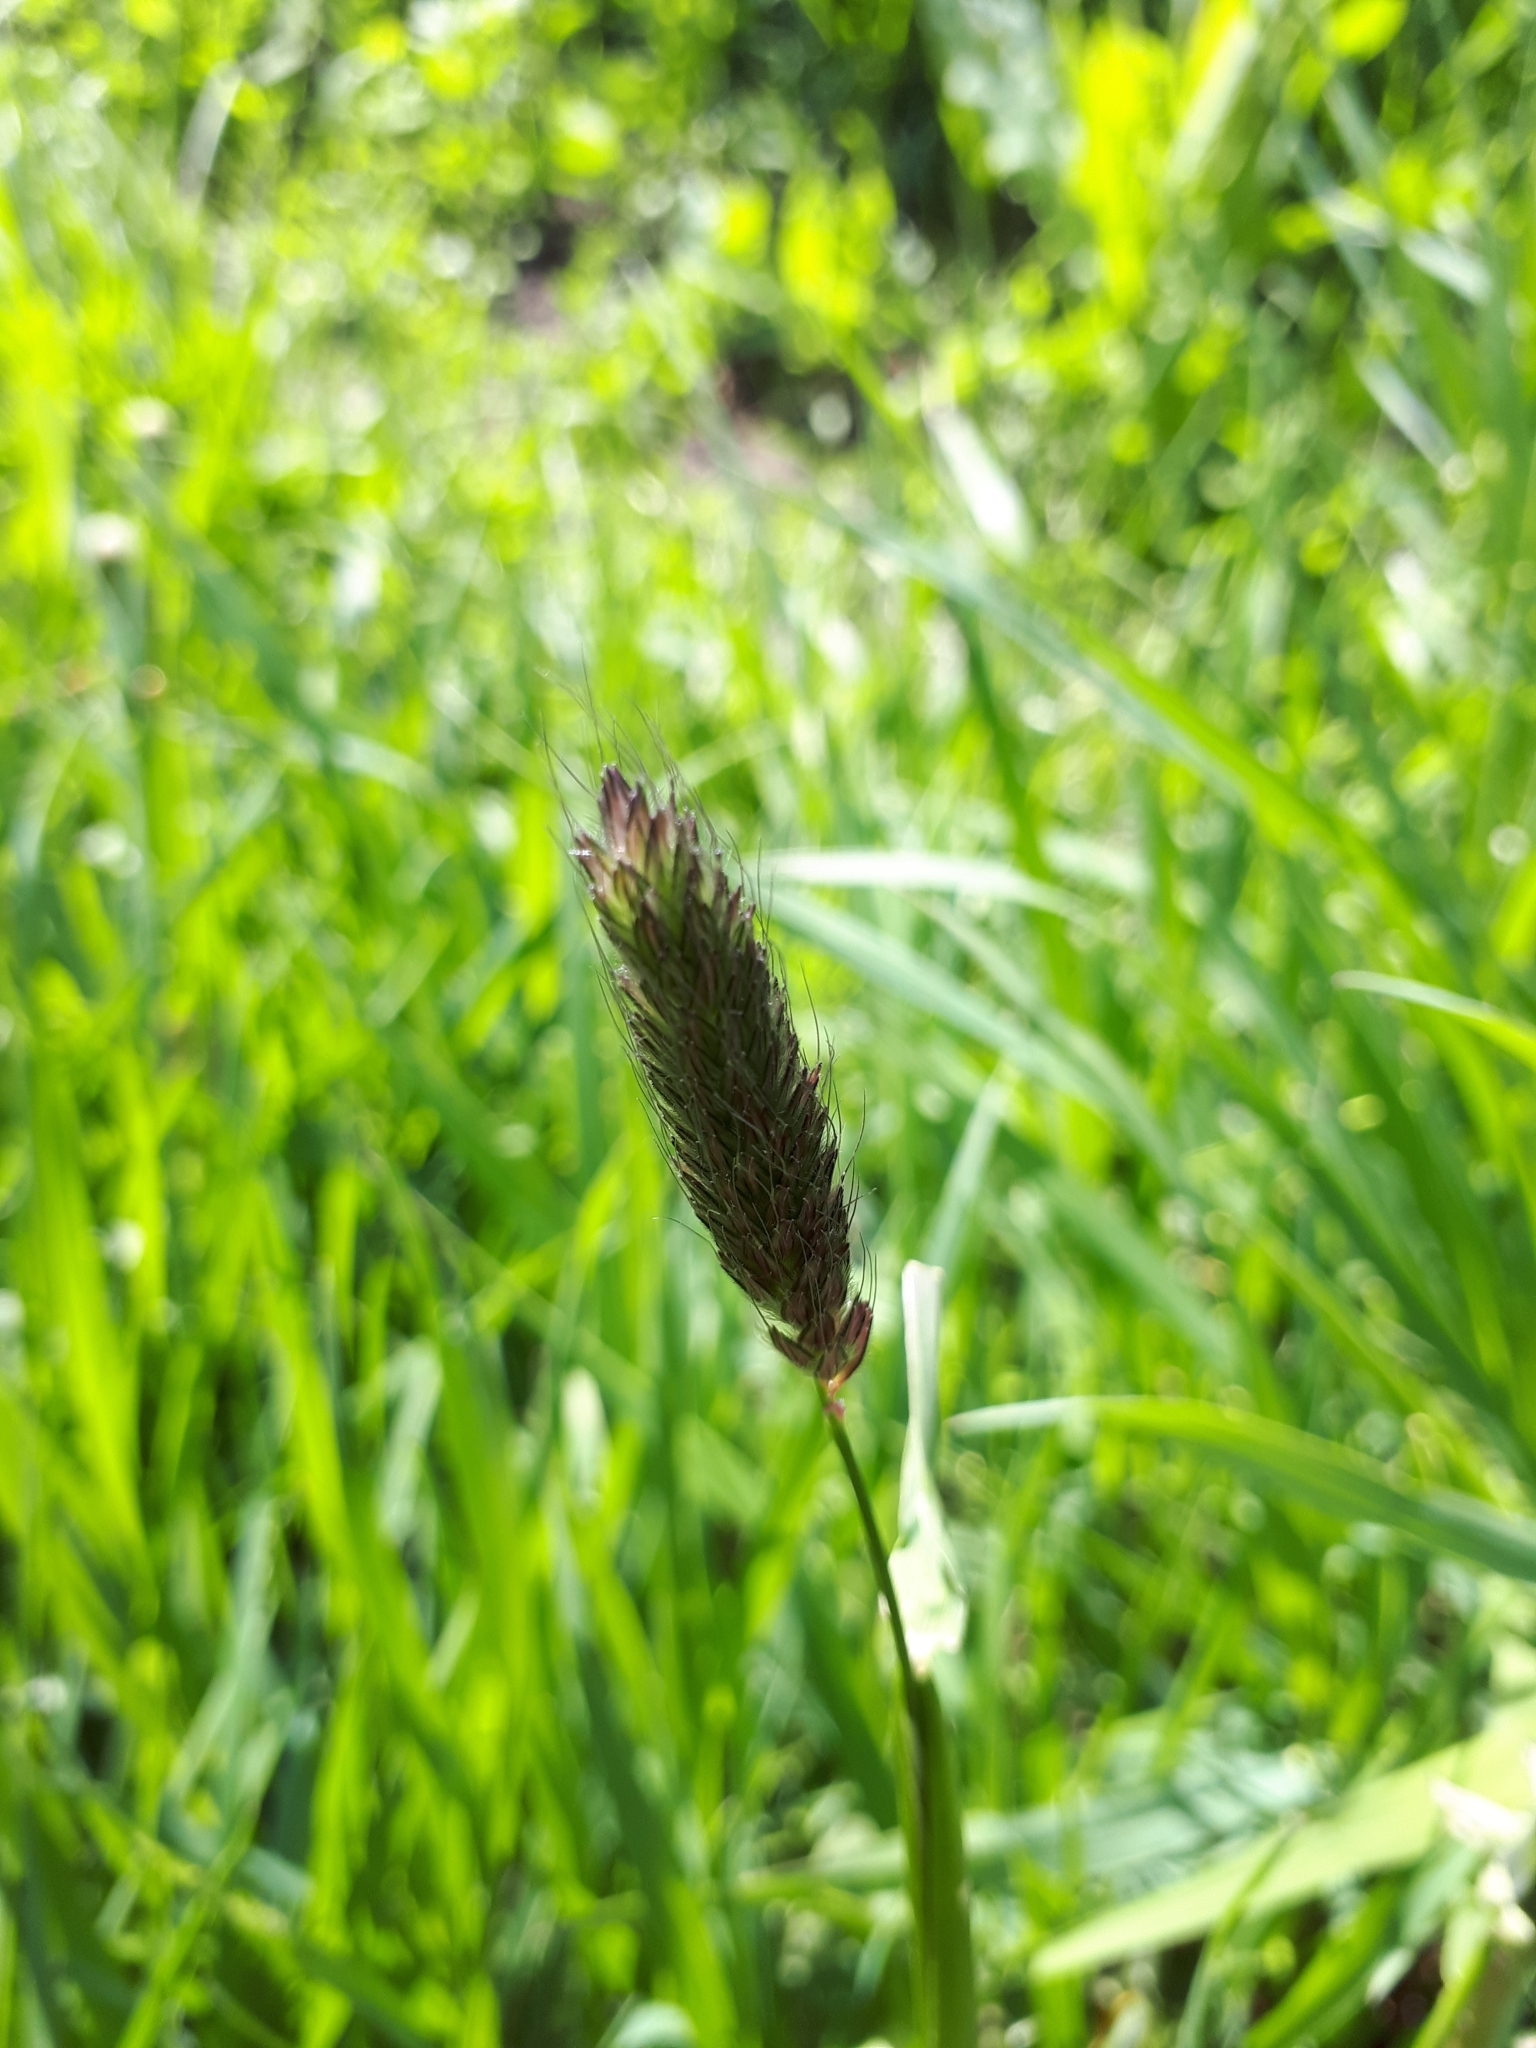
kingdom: Plantae
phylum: Tracheophyta
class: Liliopsida
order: Poales
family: Poaceae
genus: Alopecurus
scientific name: Alopecurus pratensis
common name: Meadow foxtail
